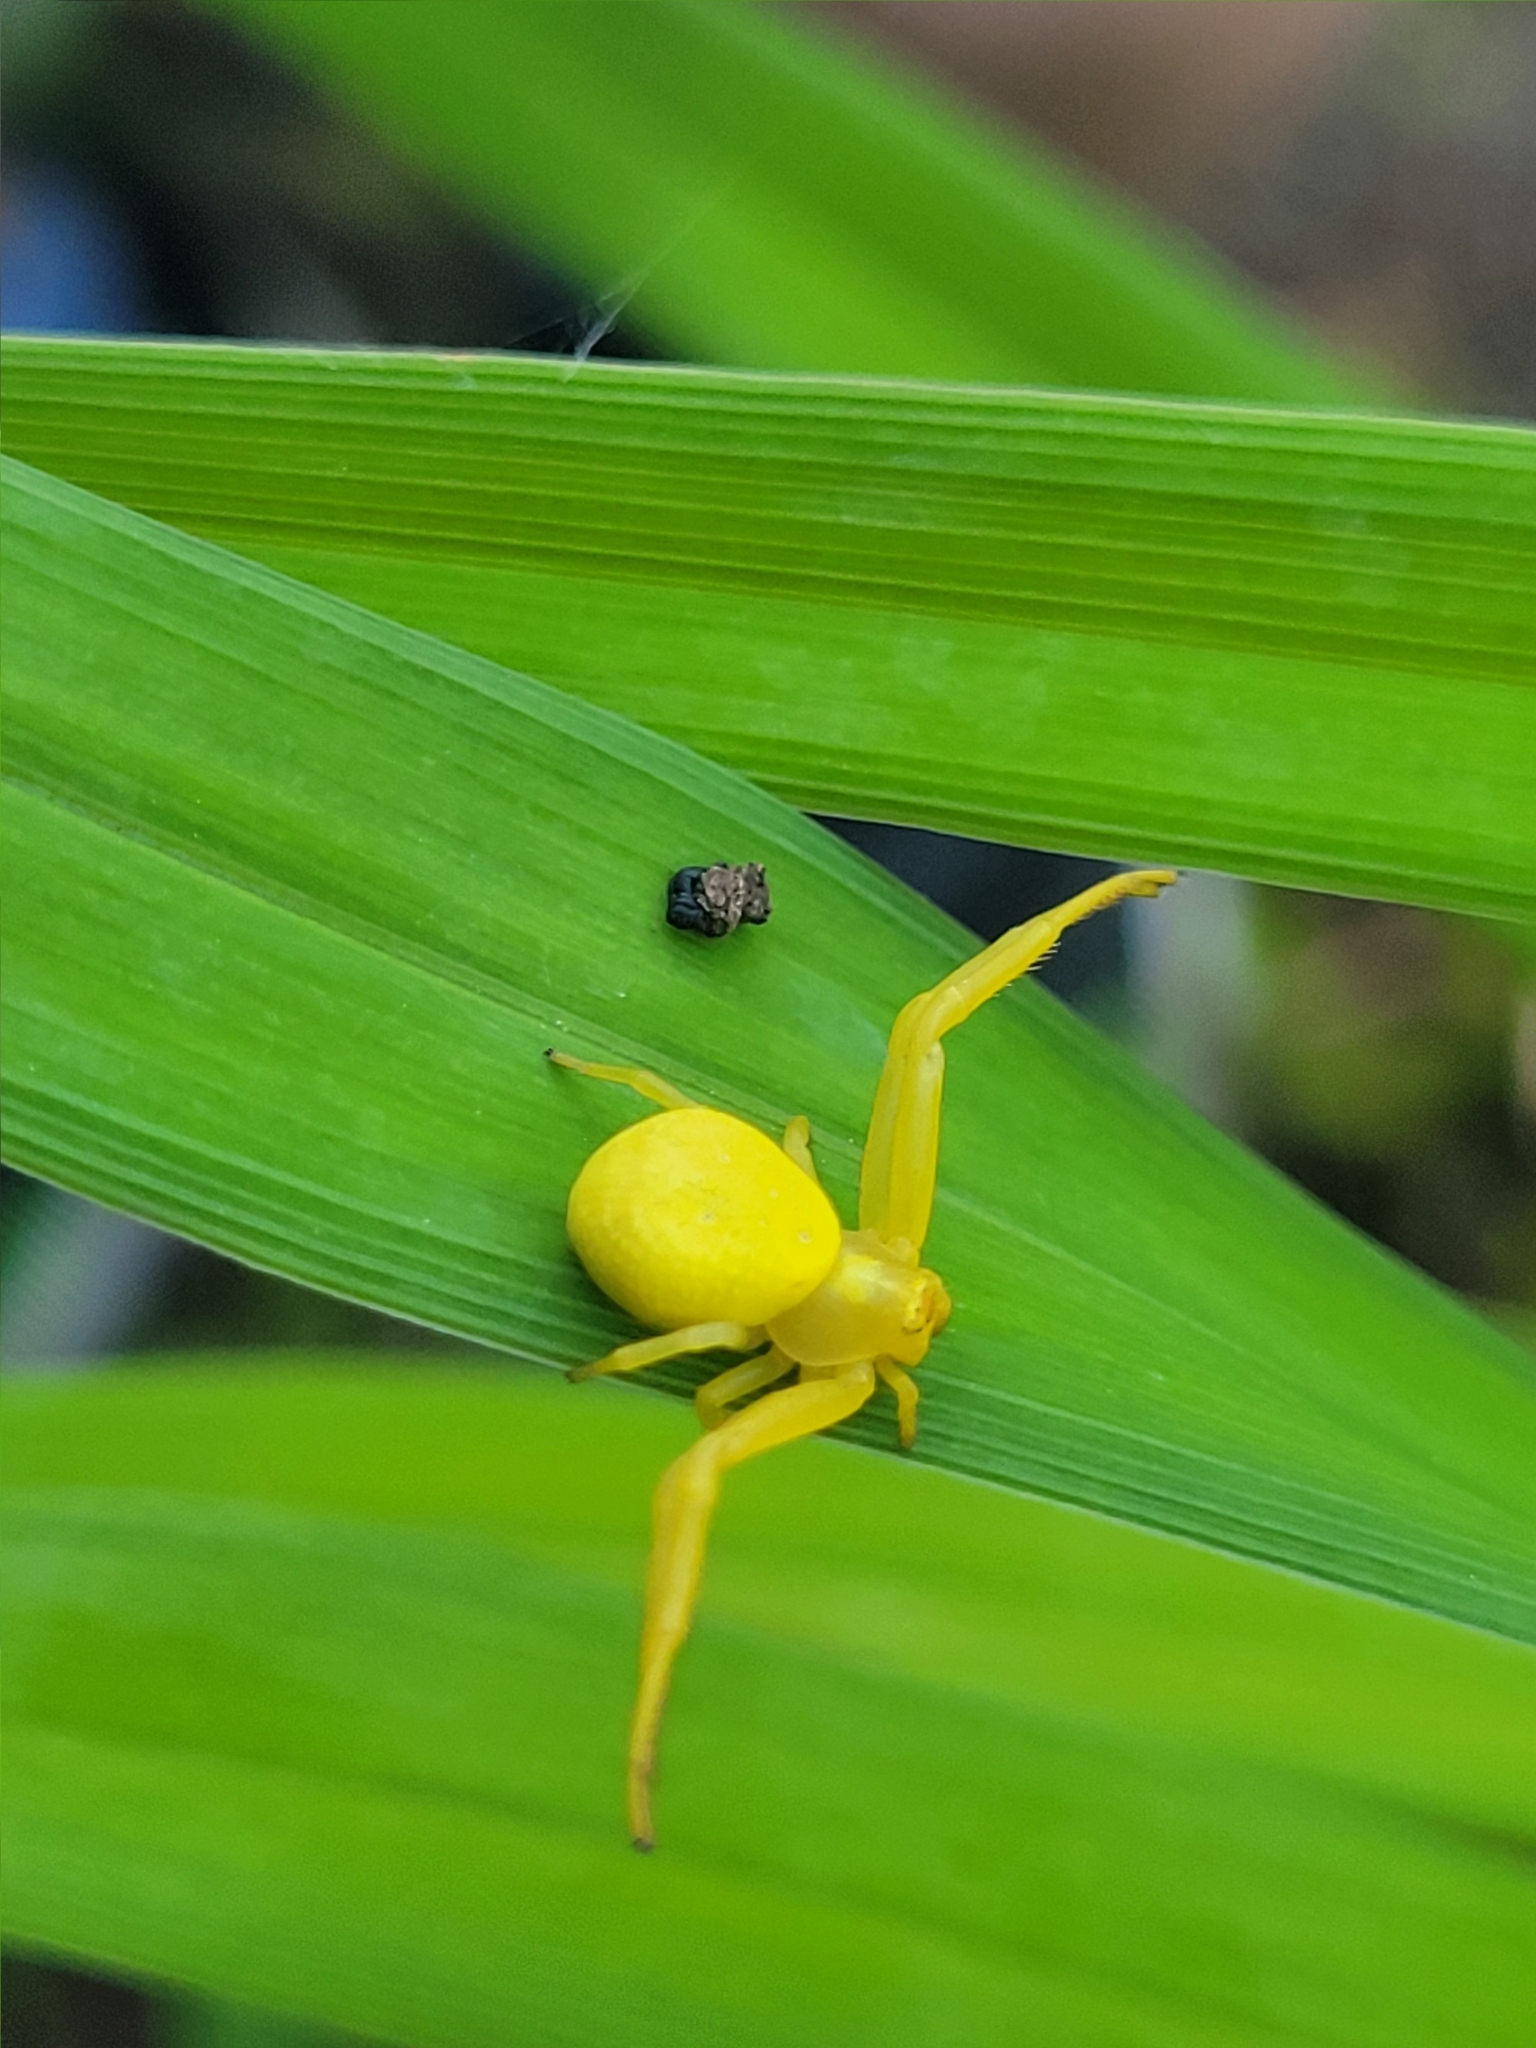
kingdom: Animalia
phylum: Arthropoda
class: Arachnida
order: Araneae
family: Thomisidae
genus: Misumena
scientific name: Misumena vatia
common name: Goldenrod crab spider
